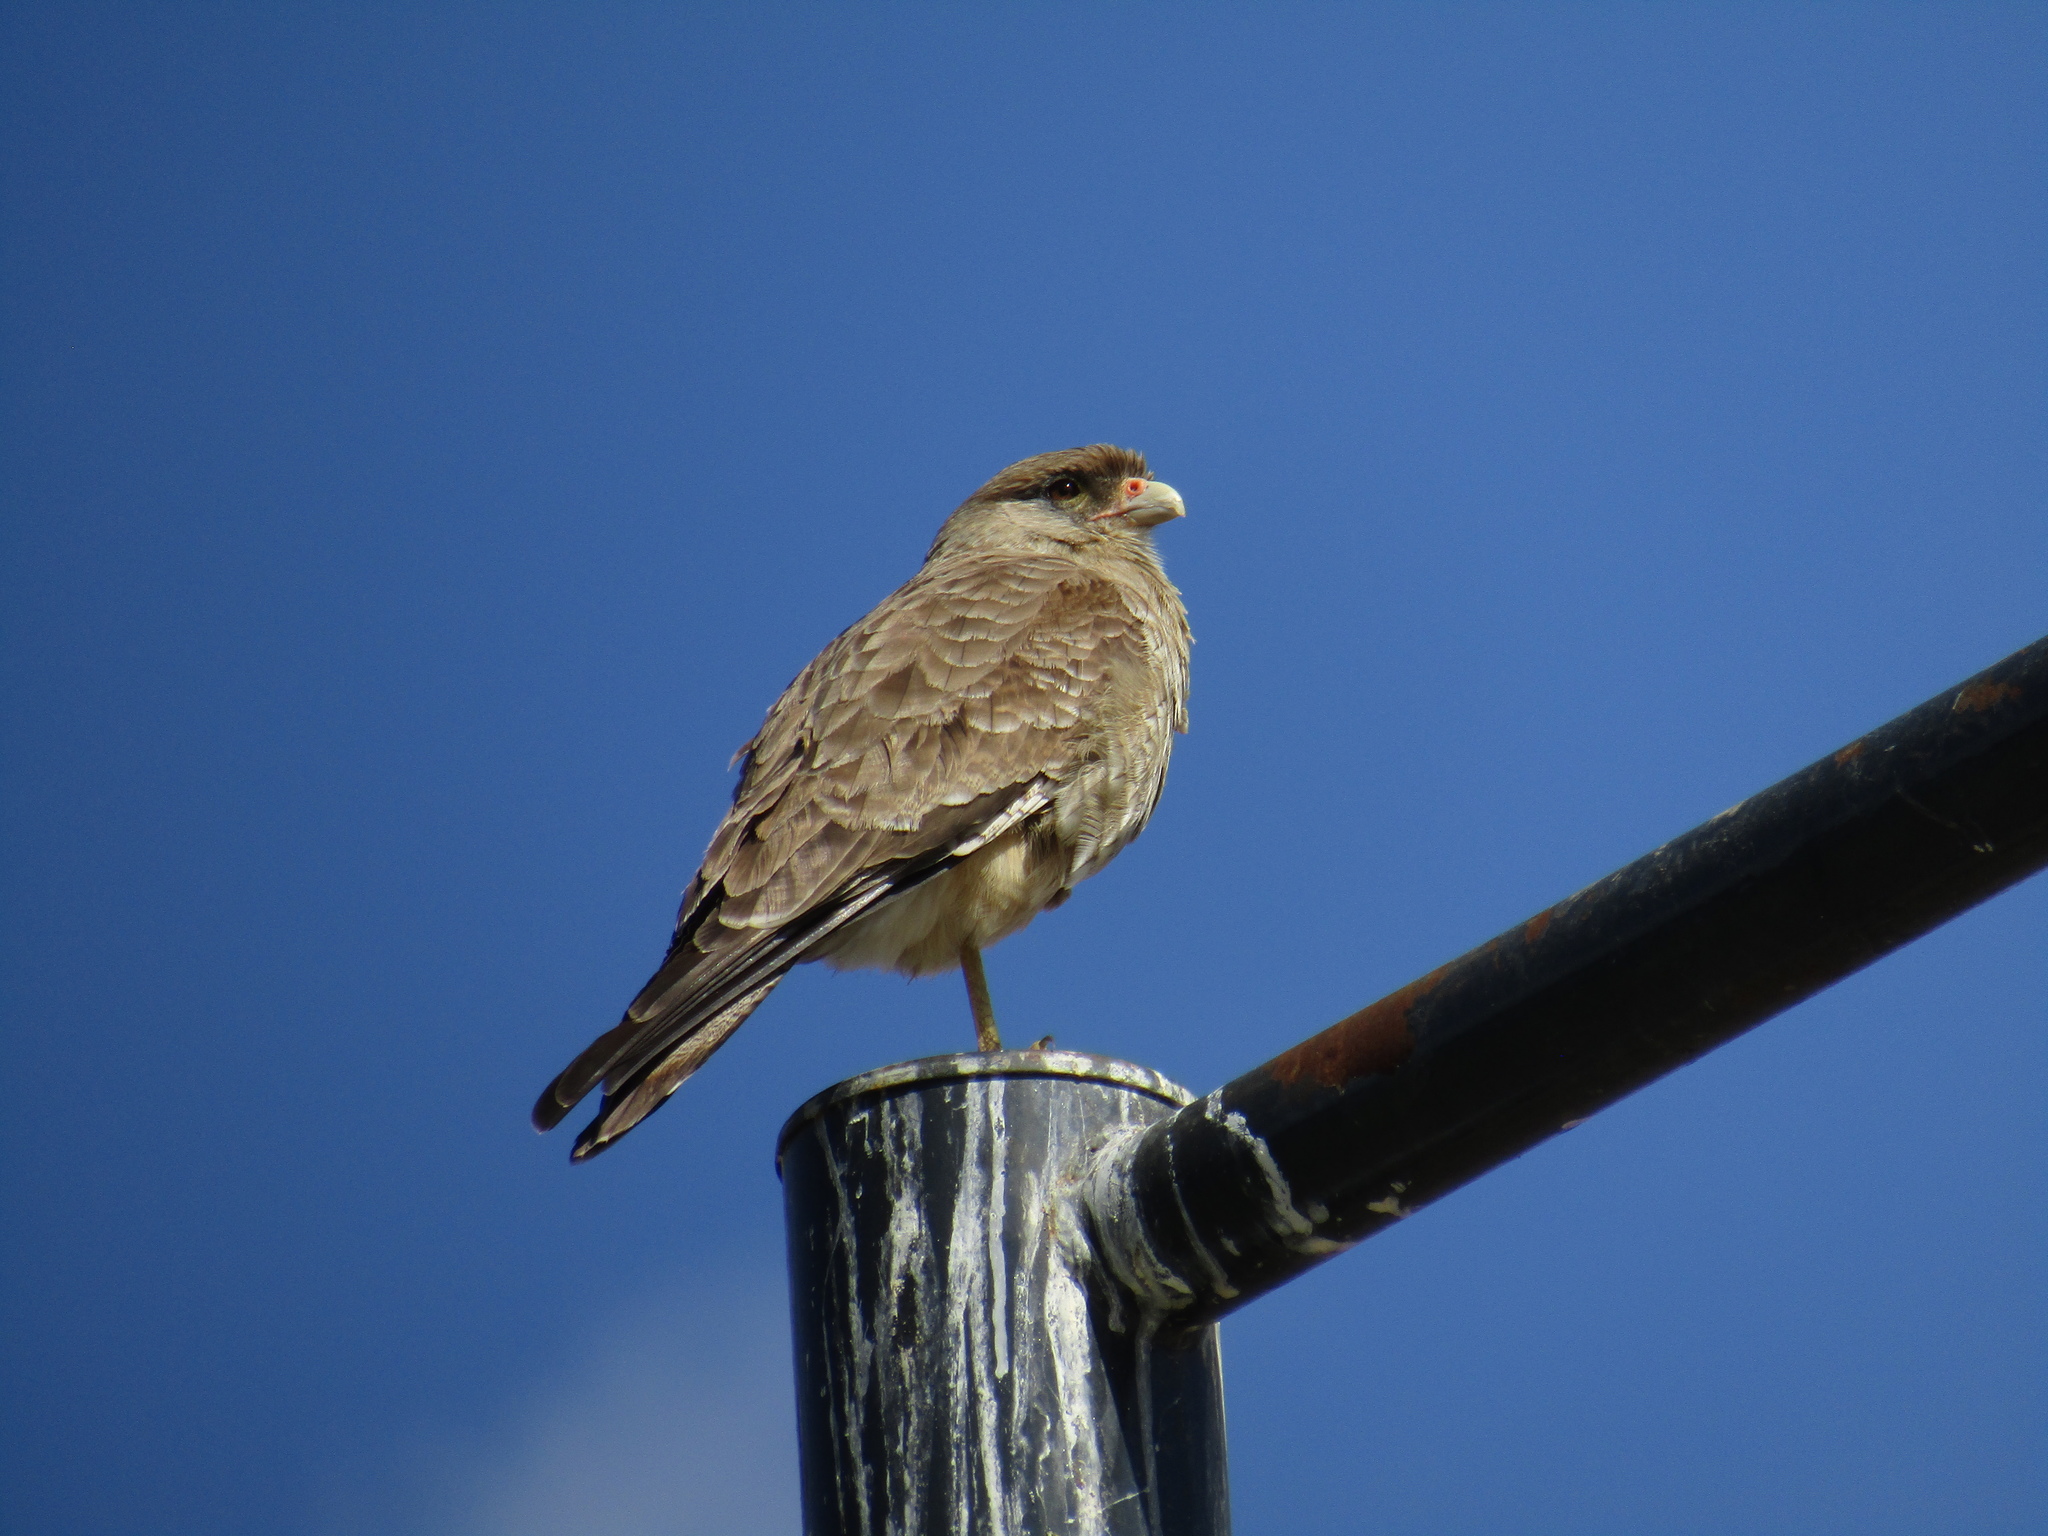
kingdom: Animalia
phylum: Chordata
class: Aves
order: Falconiformes
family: Falconidae
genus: Daptrius
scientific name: Daptrius
